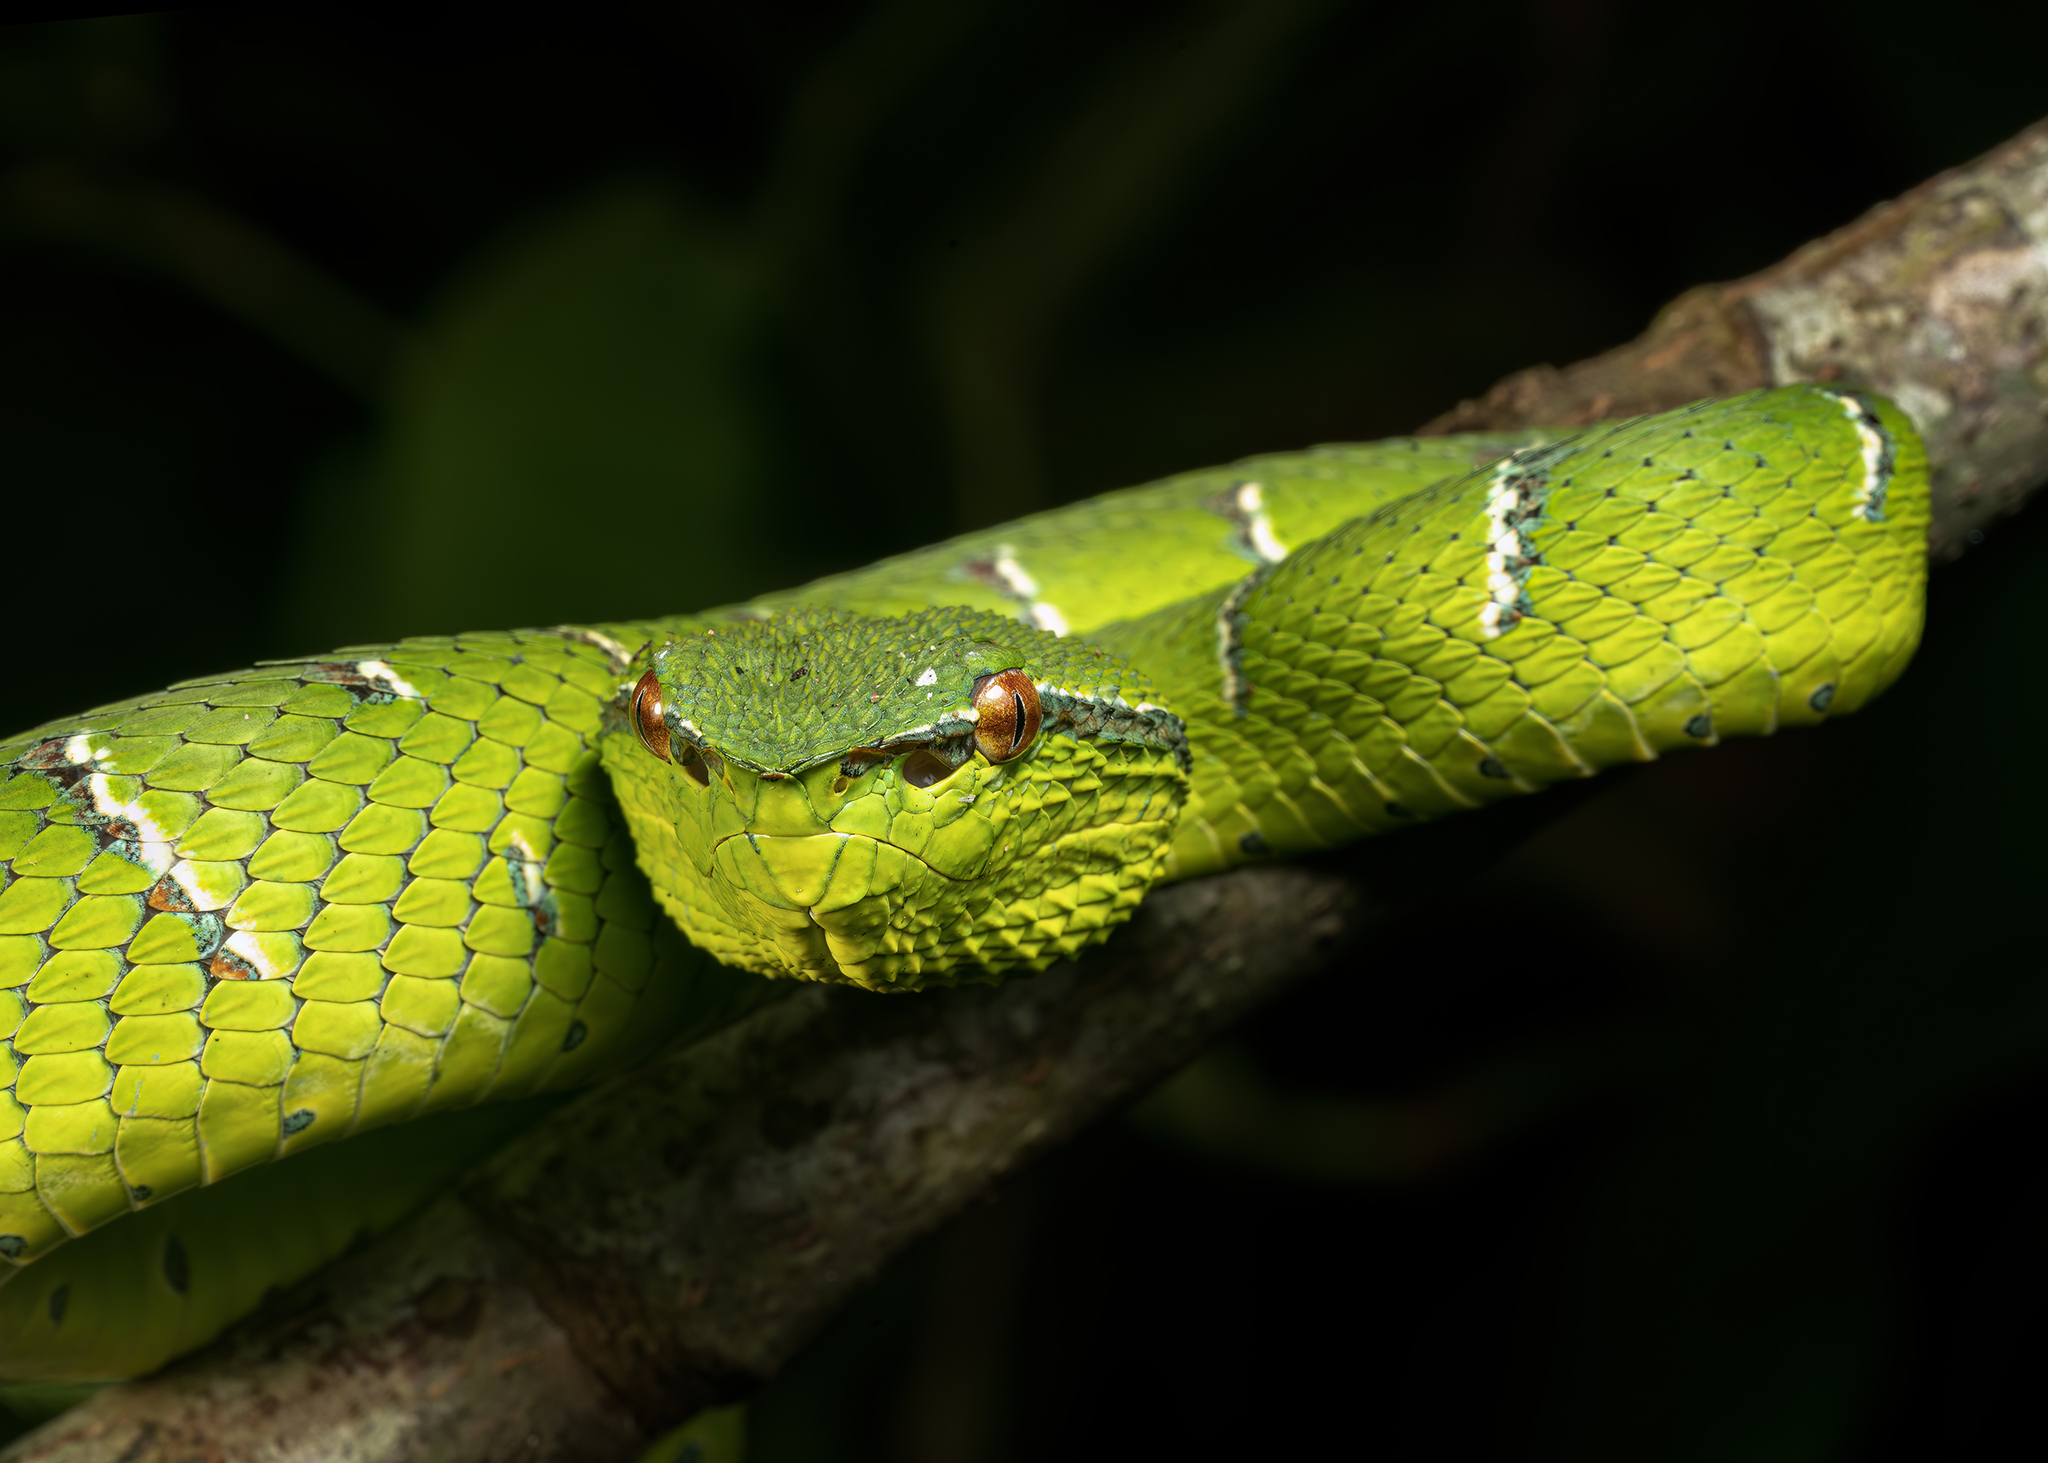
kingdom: Animalia
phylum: Chordata
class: Squamata
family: Viperidae
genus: Tropidolaemus
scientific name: Tropidolaemus subannulatus
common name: North philippine temple pitviper
